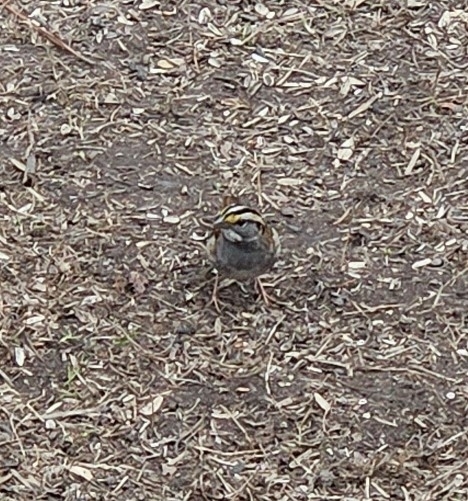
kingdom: Animalia
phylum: Chordata
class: Aves
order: Passeriformes
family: Passerellidae
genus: Zonotrichia
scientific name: Zonotrichia albicollis
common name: White-throated sparrow
